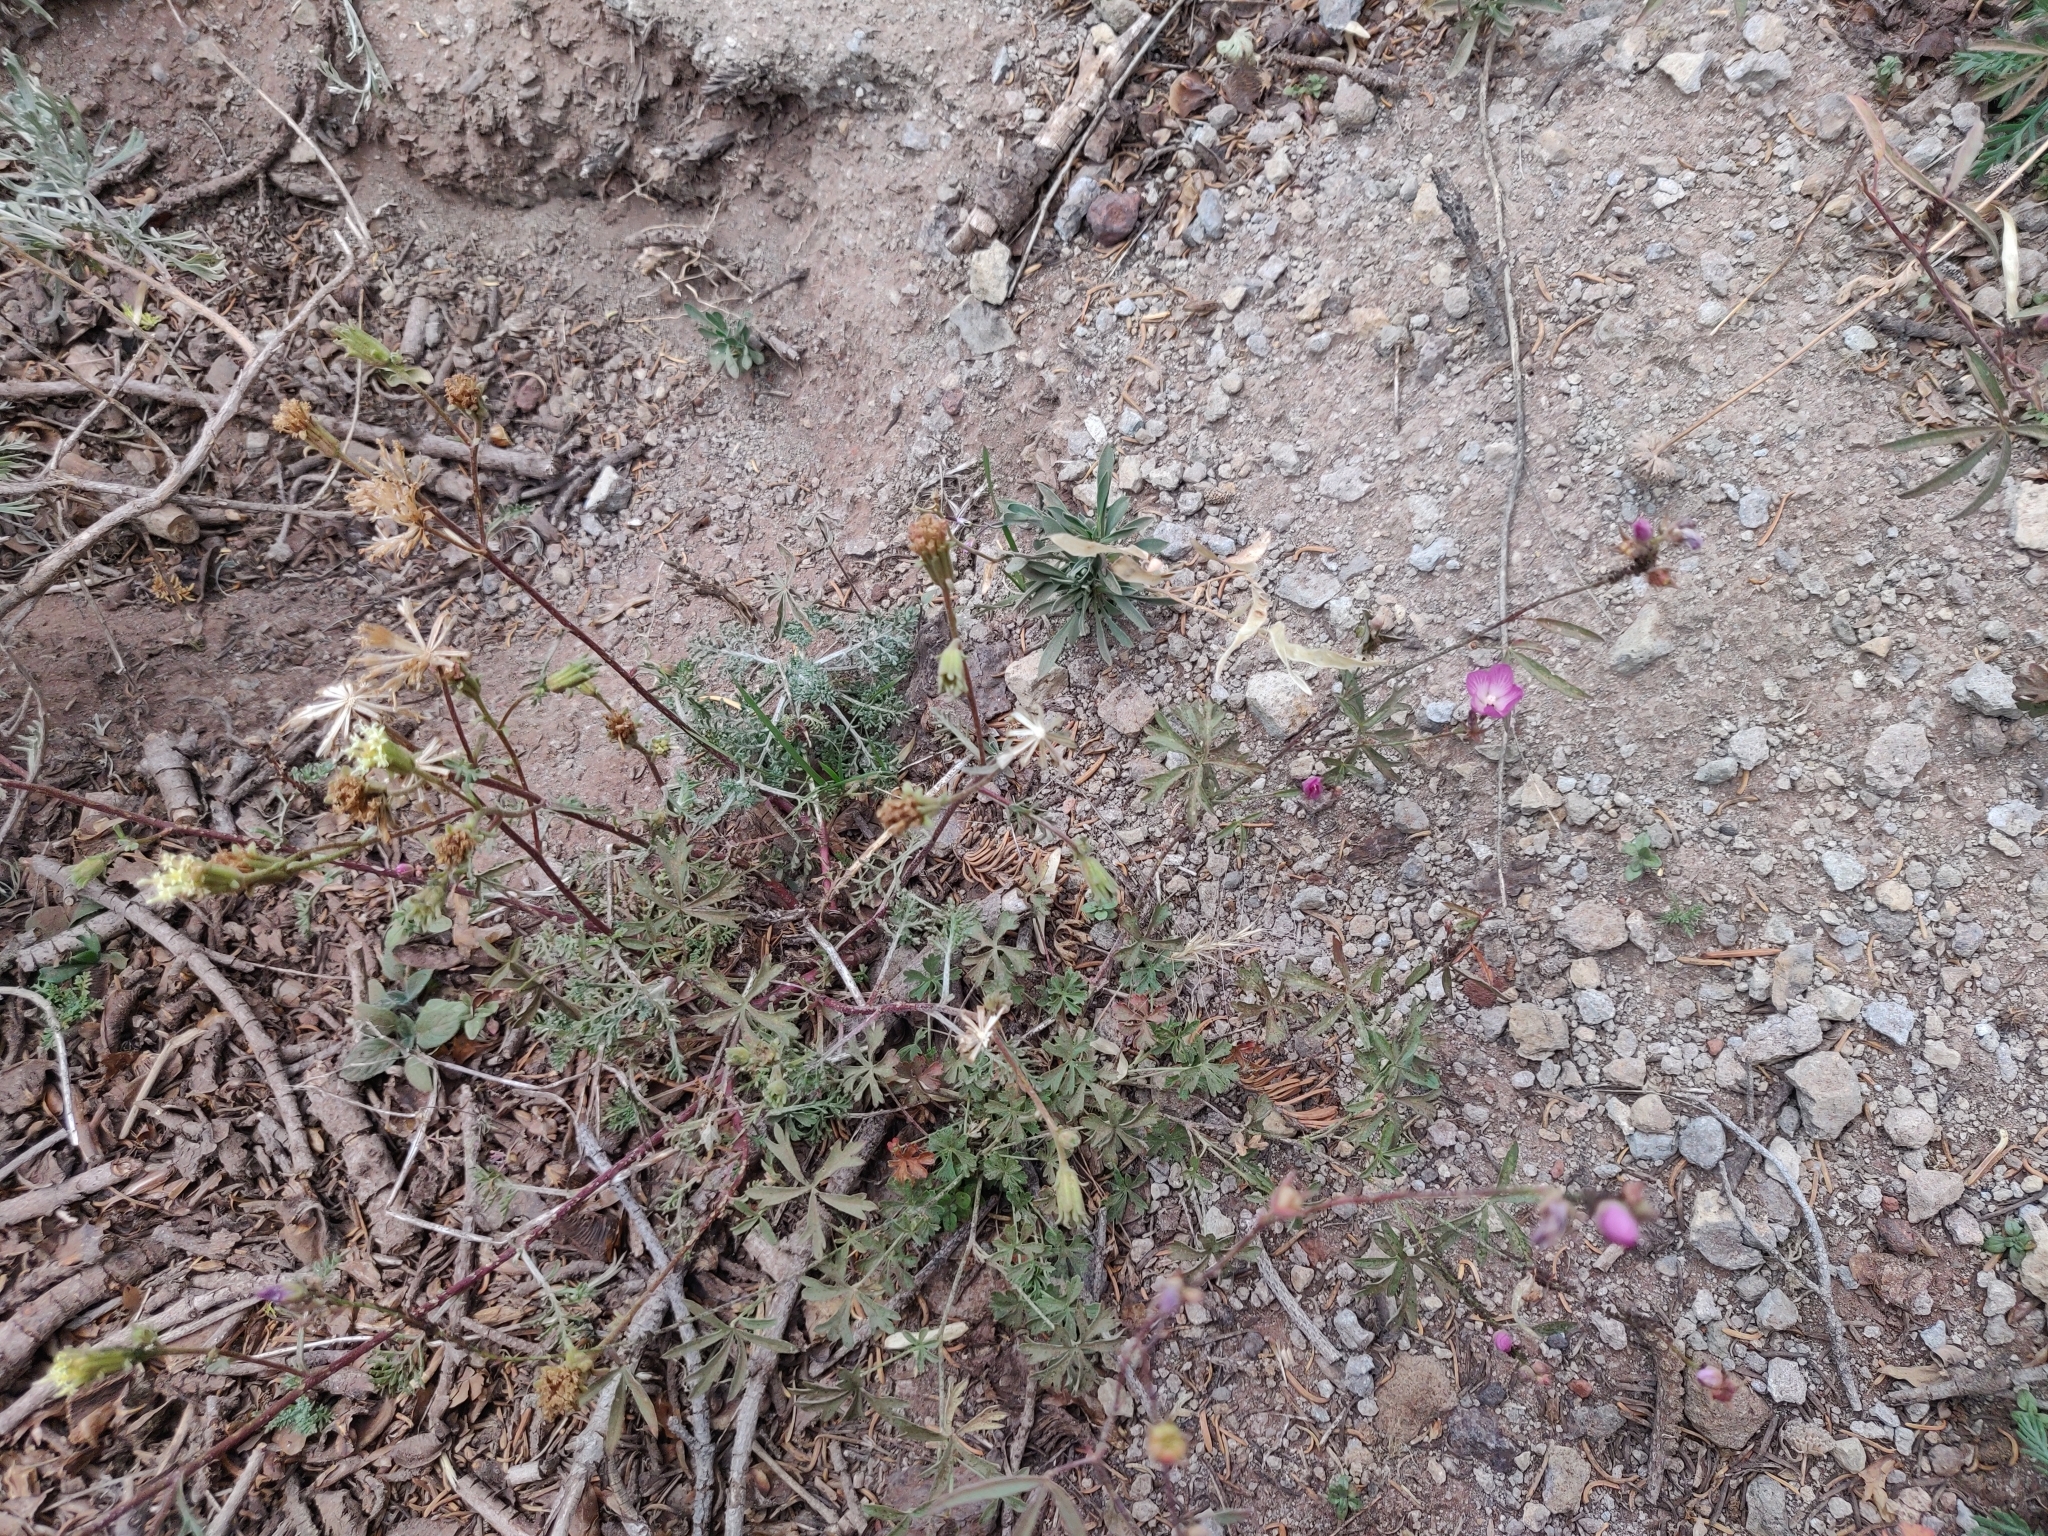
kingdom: Plantae
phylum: Tracheophyta
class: Magnoliopsida
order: Malvales
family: Malvaceae
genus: Sidalcea
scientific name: Sidalcea glaucescens
